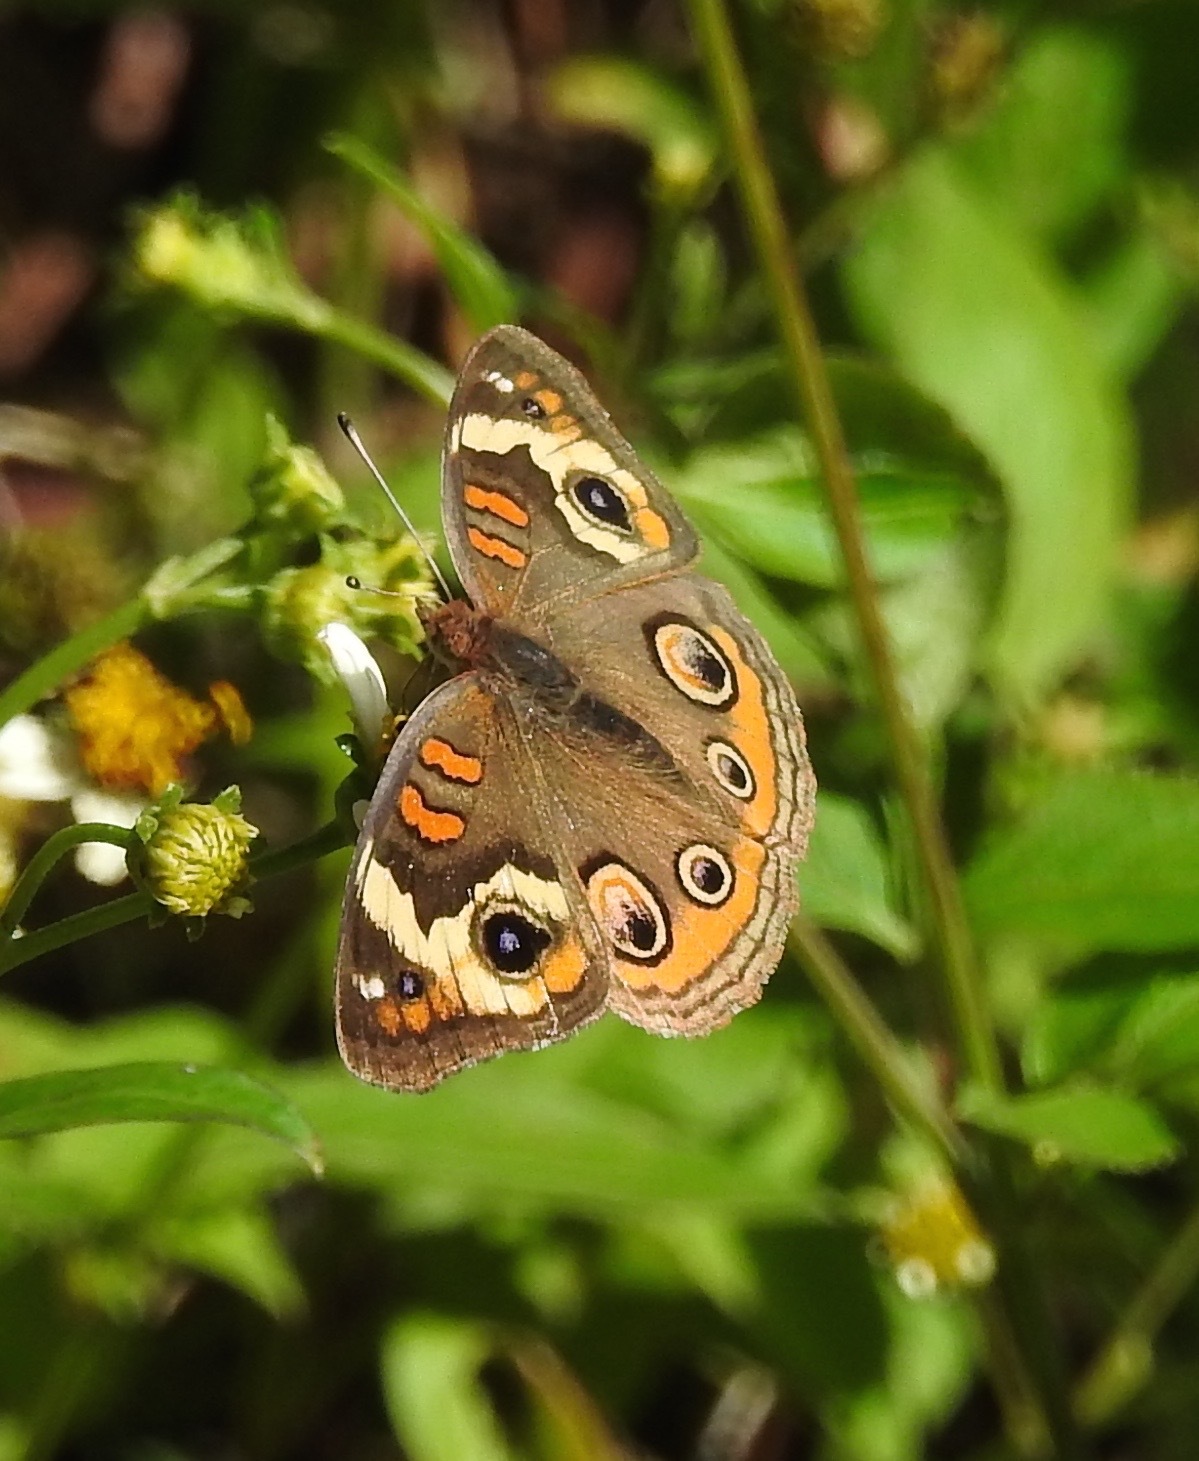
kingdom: Animalia
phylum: Arthropoda
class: Insecta
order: Lepidoptera
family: Nymphalidae
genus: Junonia
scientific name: Junonia coenia
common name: Common buckeye
